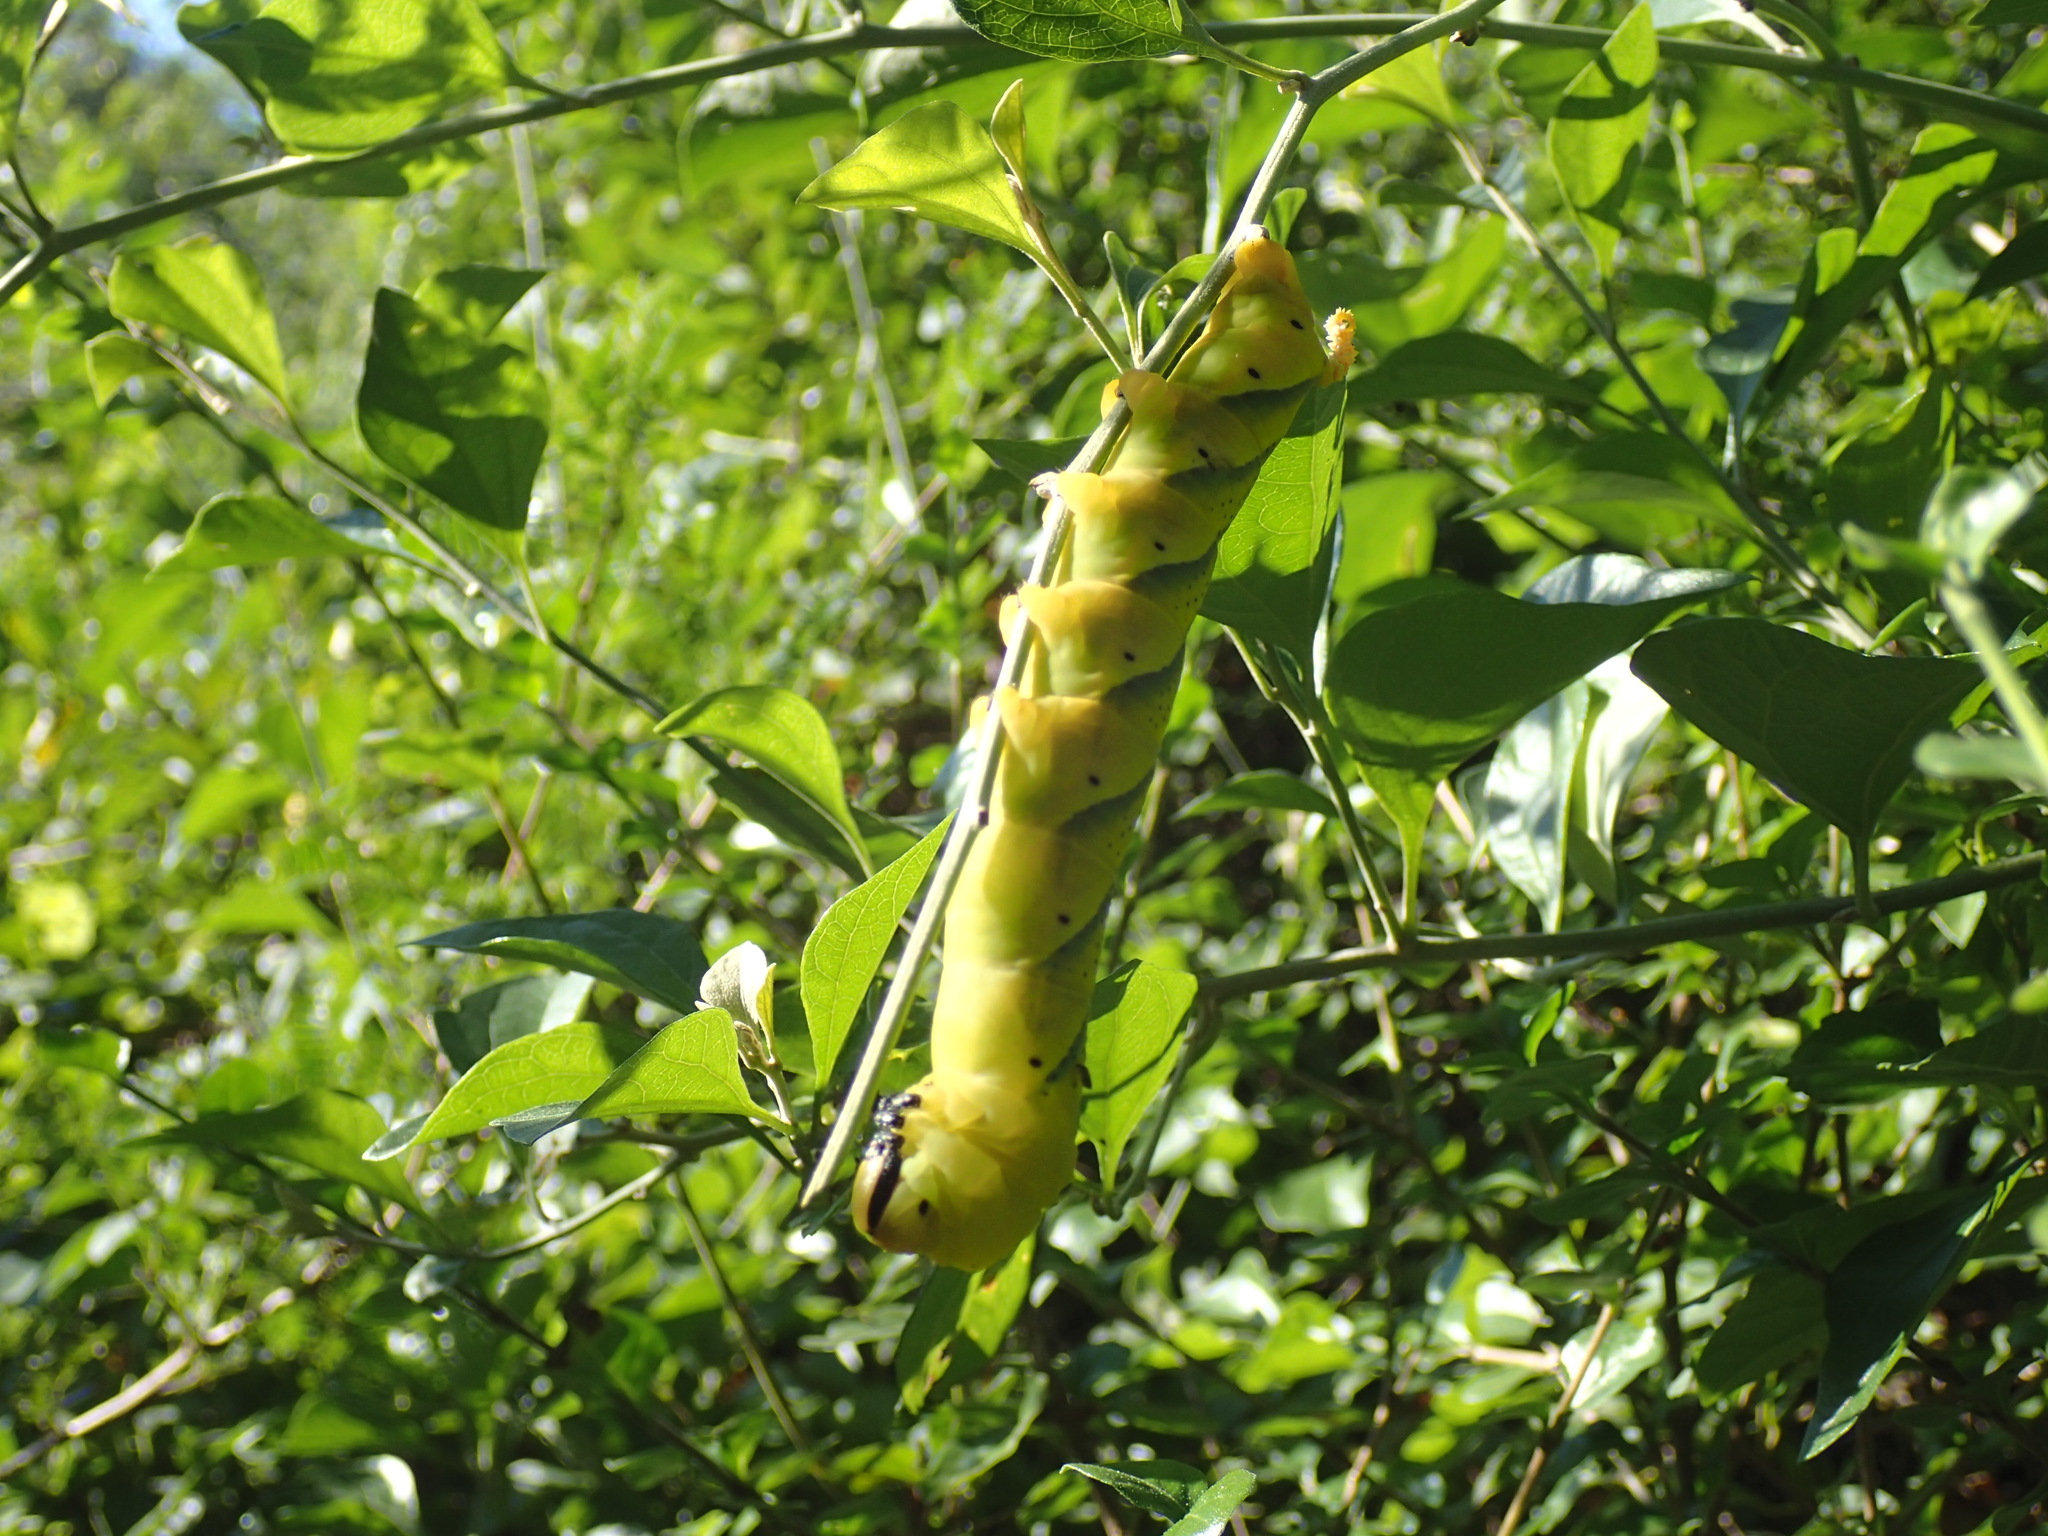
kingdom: Animalia
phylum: Arthropoda
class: Insecta
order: Lepidoptera
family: Sphingidae
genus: Acherontia
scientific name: Acherontia atropos
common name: Death's-head hawk moth
